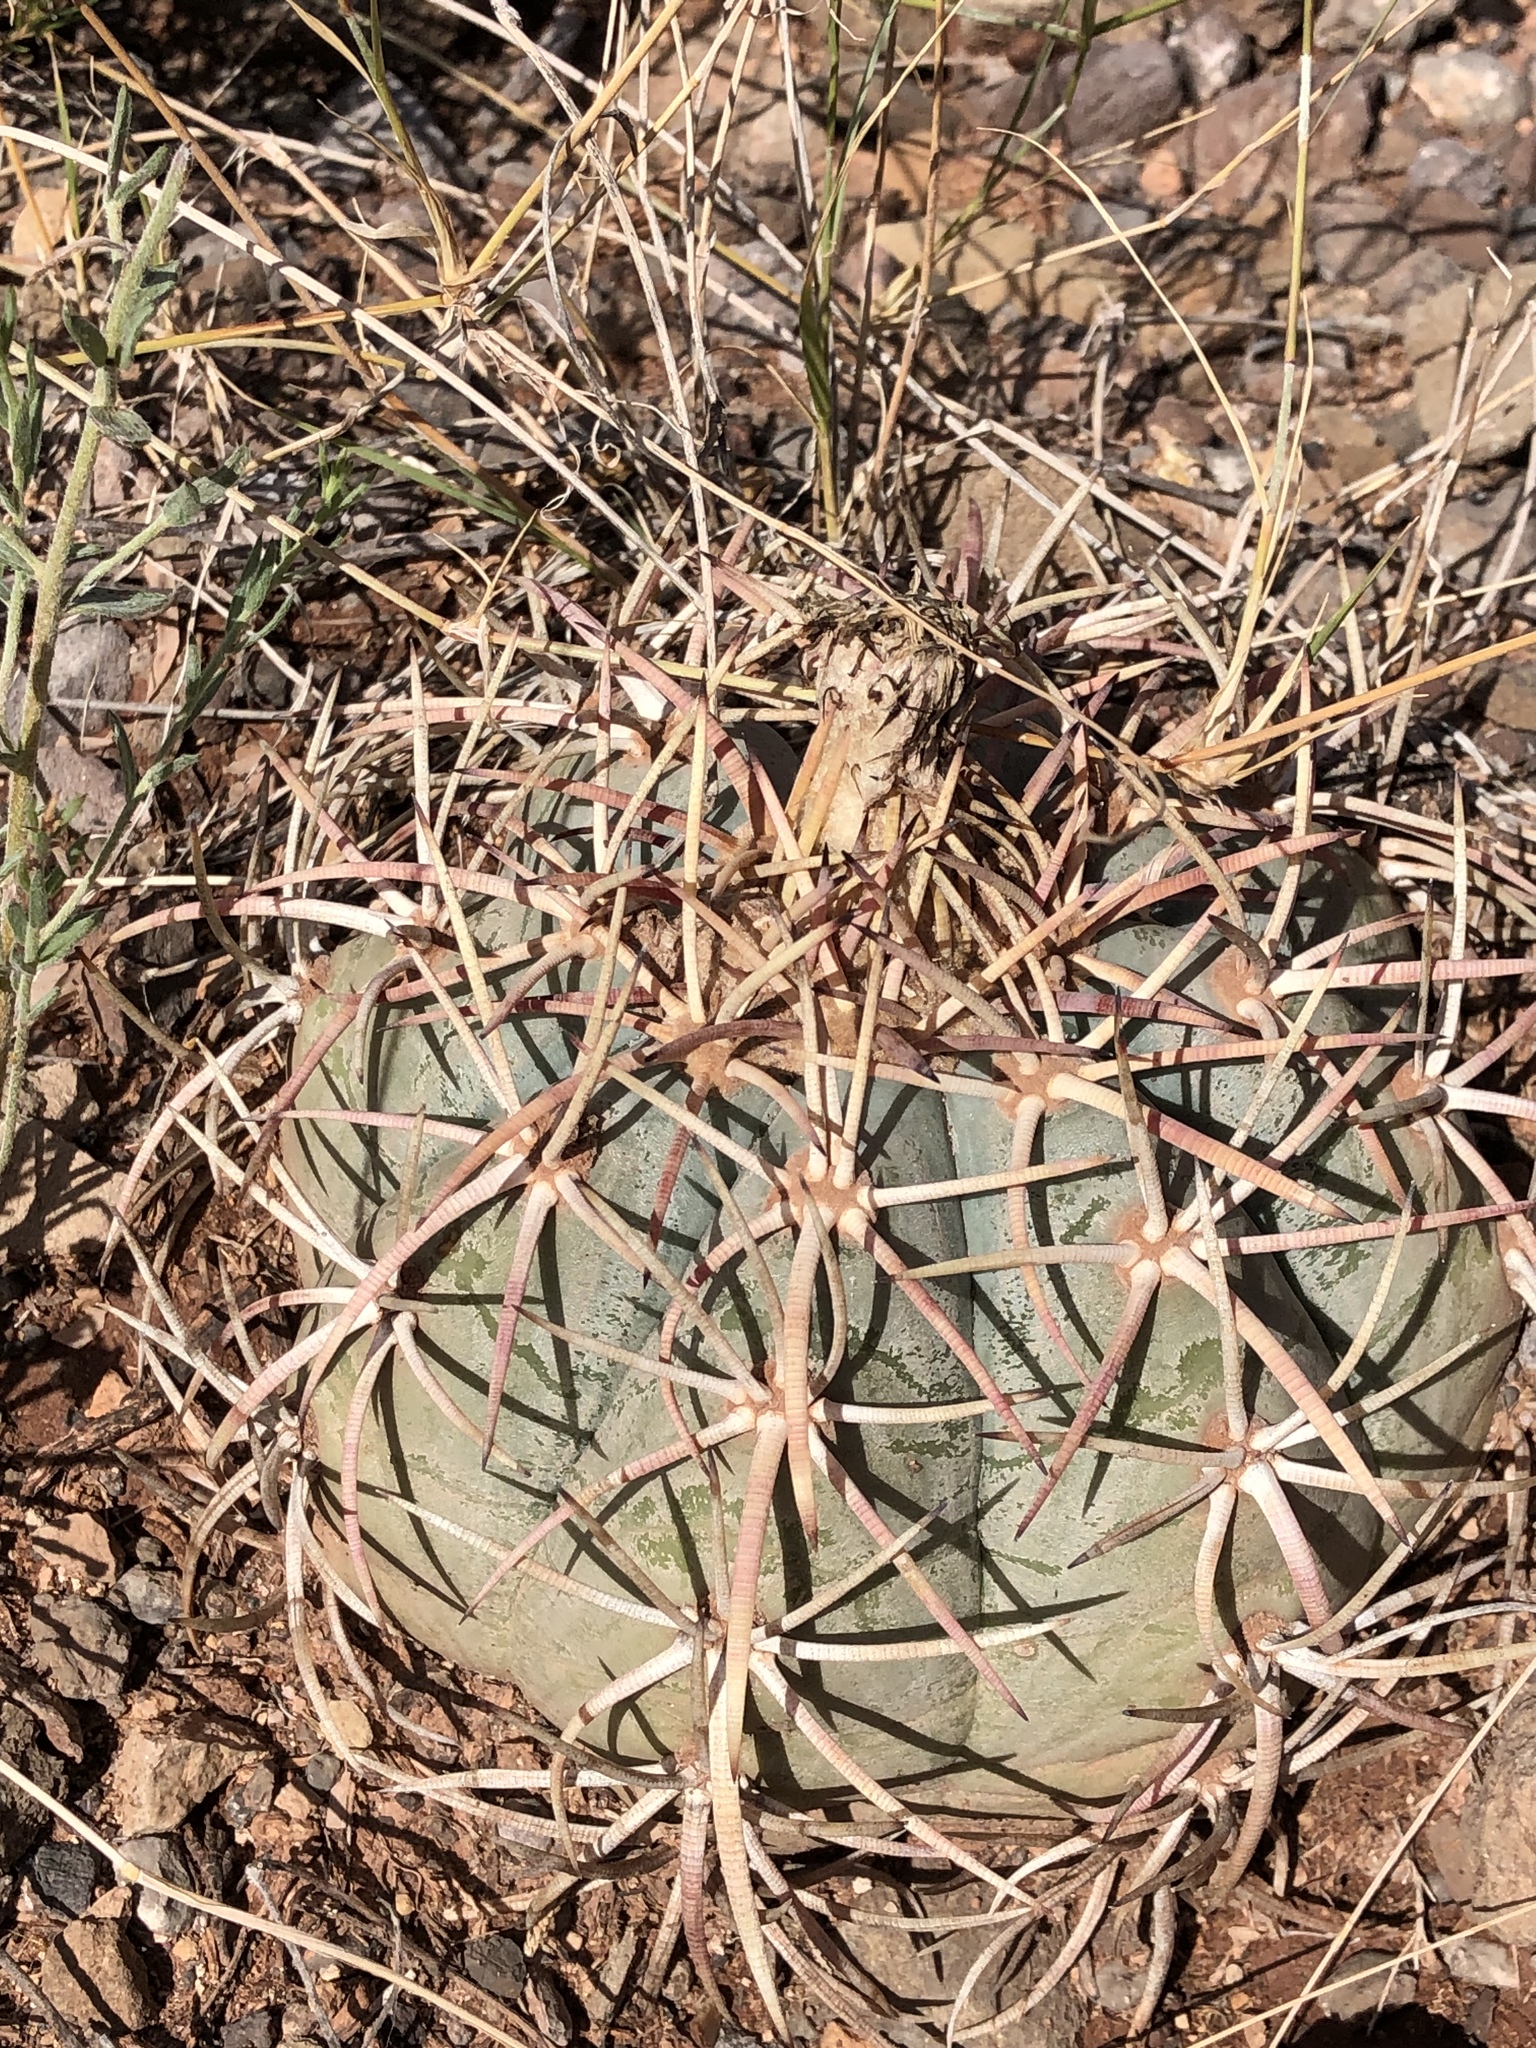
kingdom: Plantae
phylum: Tracheophyta
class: Magnoliopsida
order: Caryophyllales
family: Cactaceae
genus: Echinocactus
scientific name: Echinocactus horizonthalonius
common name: Devilshead
